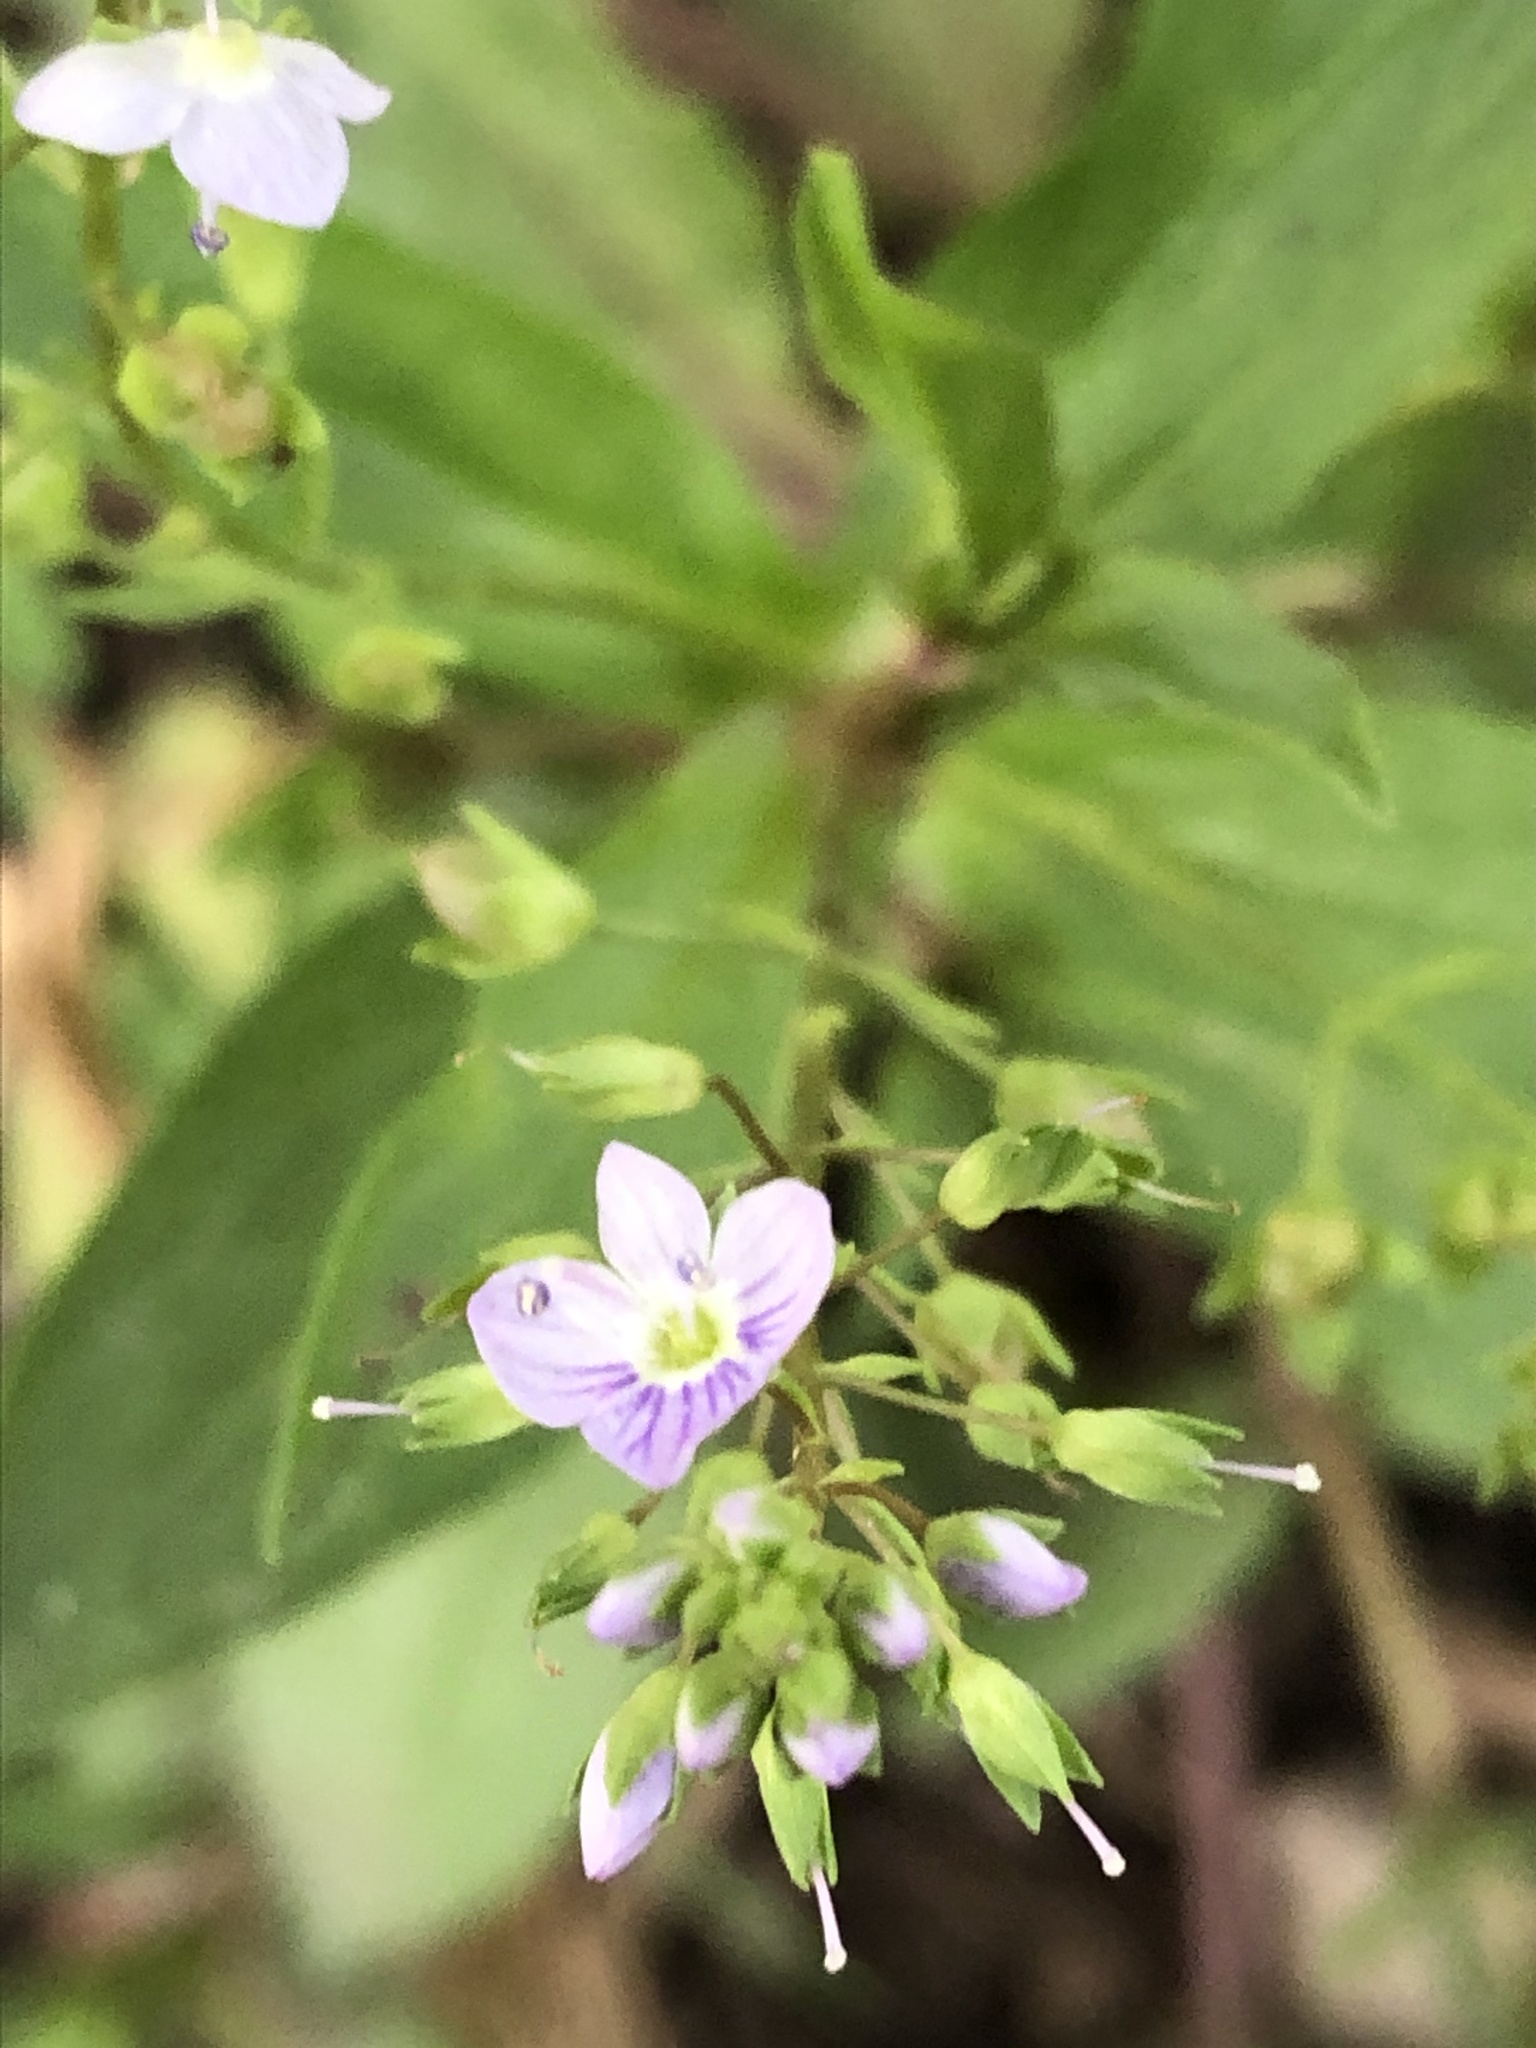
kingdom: Plantae
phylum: Tracheophyta
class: Magnoliopsida
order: Lamiales
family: Plantaginaceae
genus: Veronica
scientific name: Veronica anagallis-aquatica
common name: Water speedwell
